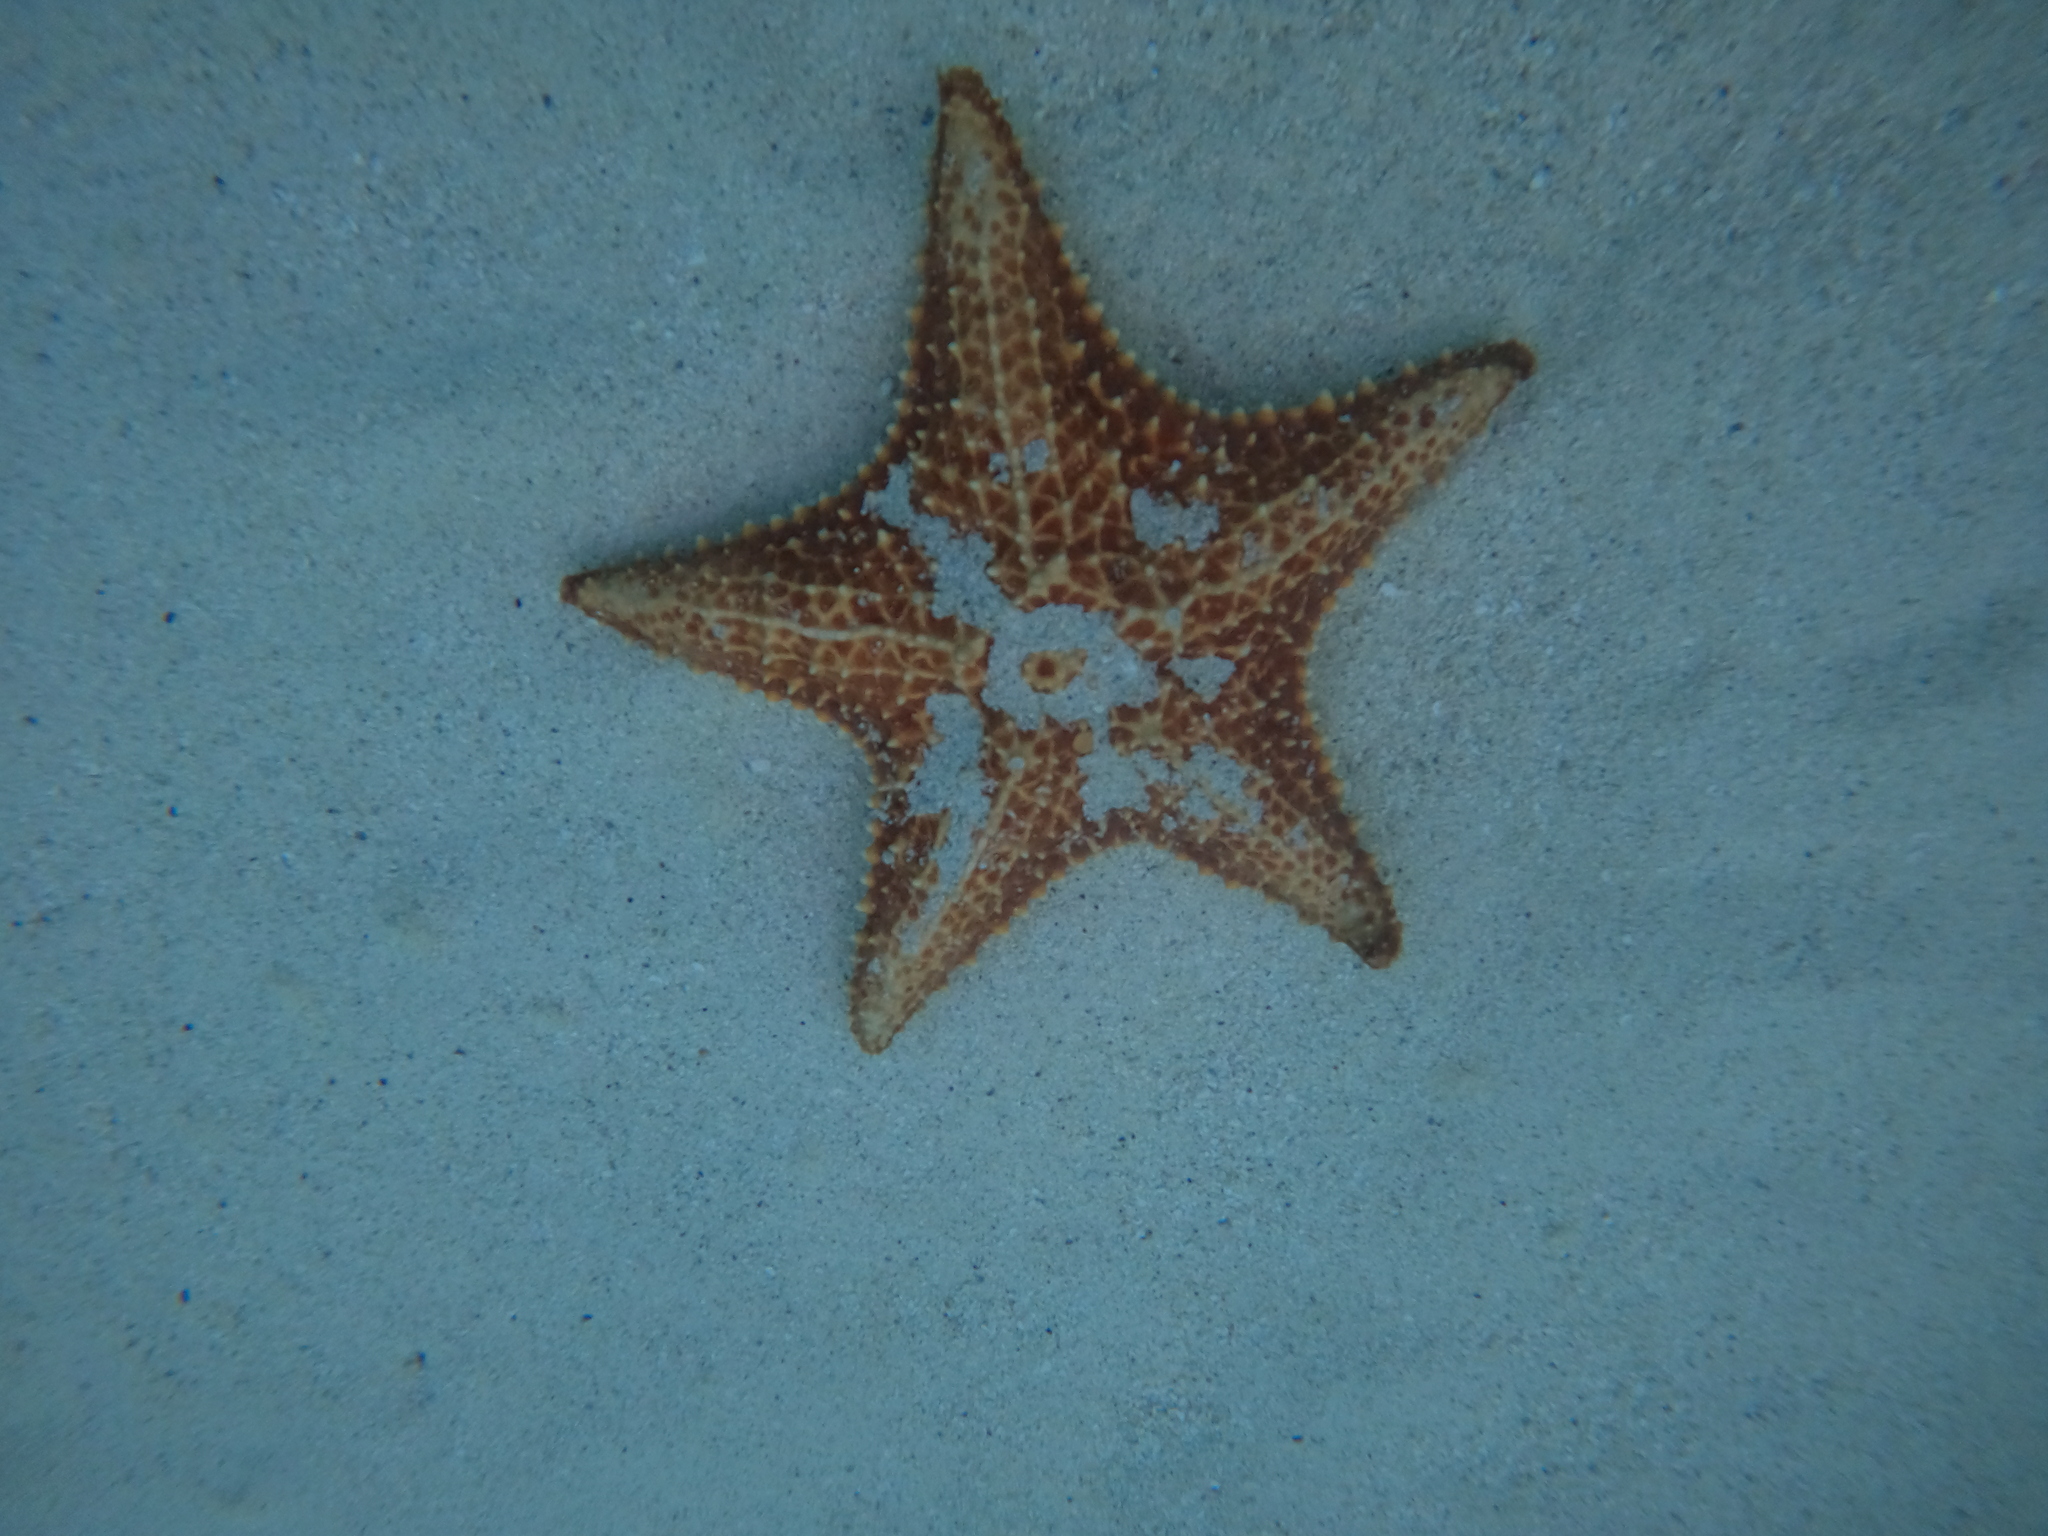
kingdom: Animalia
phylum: Echinodermata
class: Asteroidea
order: Valvatida
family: Oreasteridae
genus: Oreaster
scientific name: Oreaster reticulatus
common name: Cushion sea star
